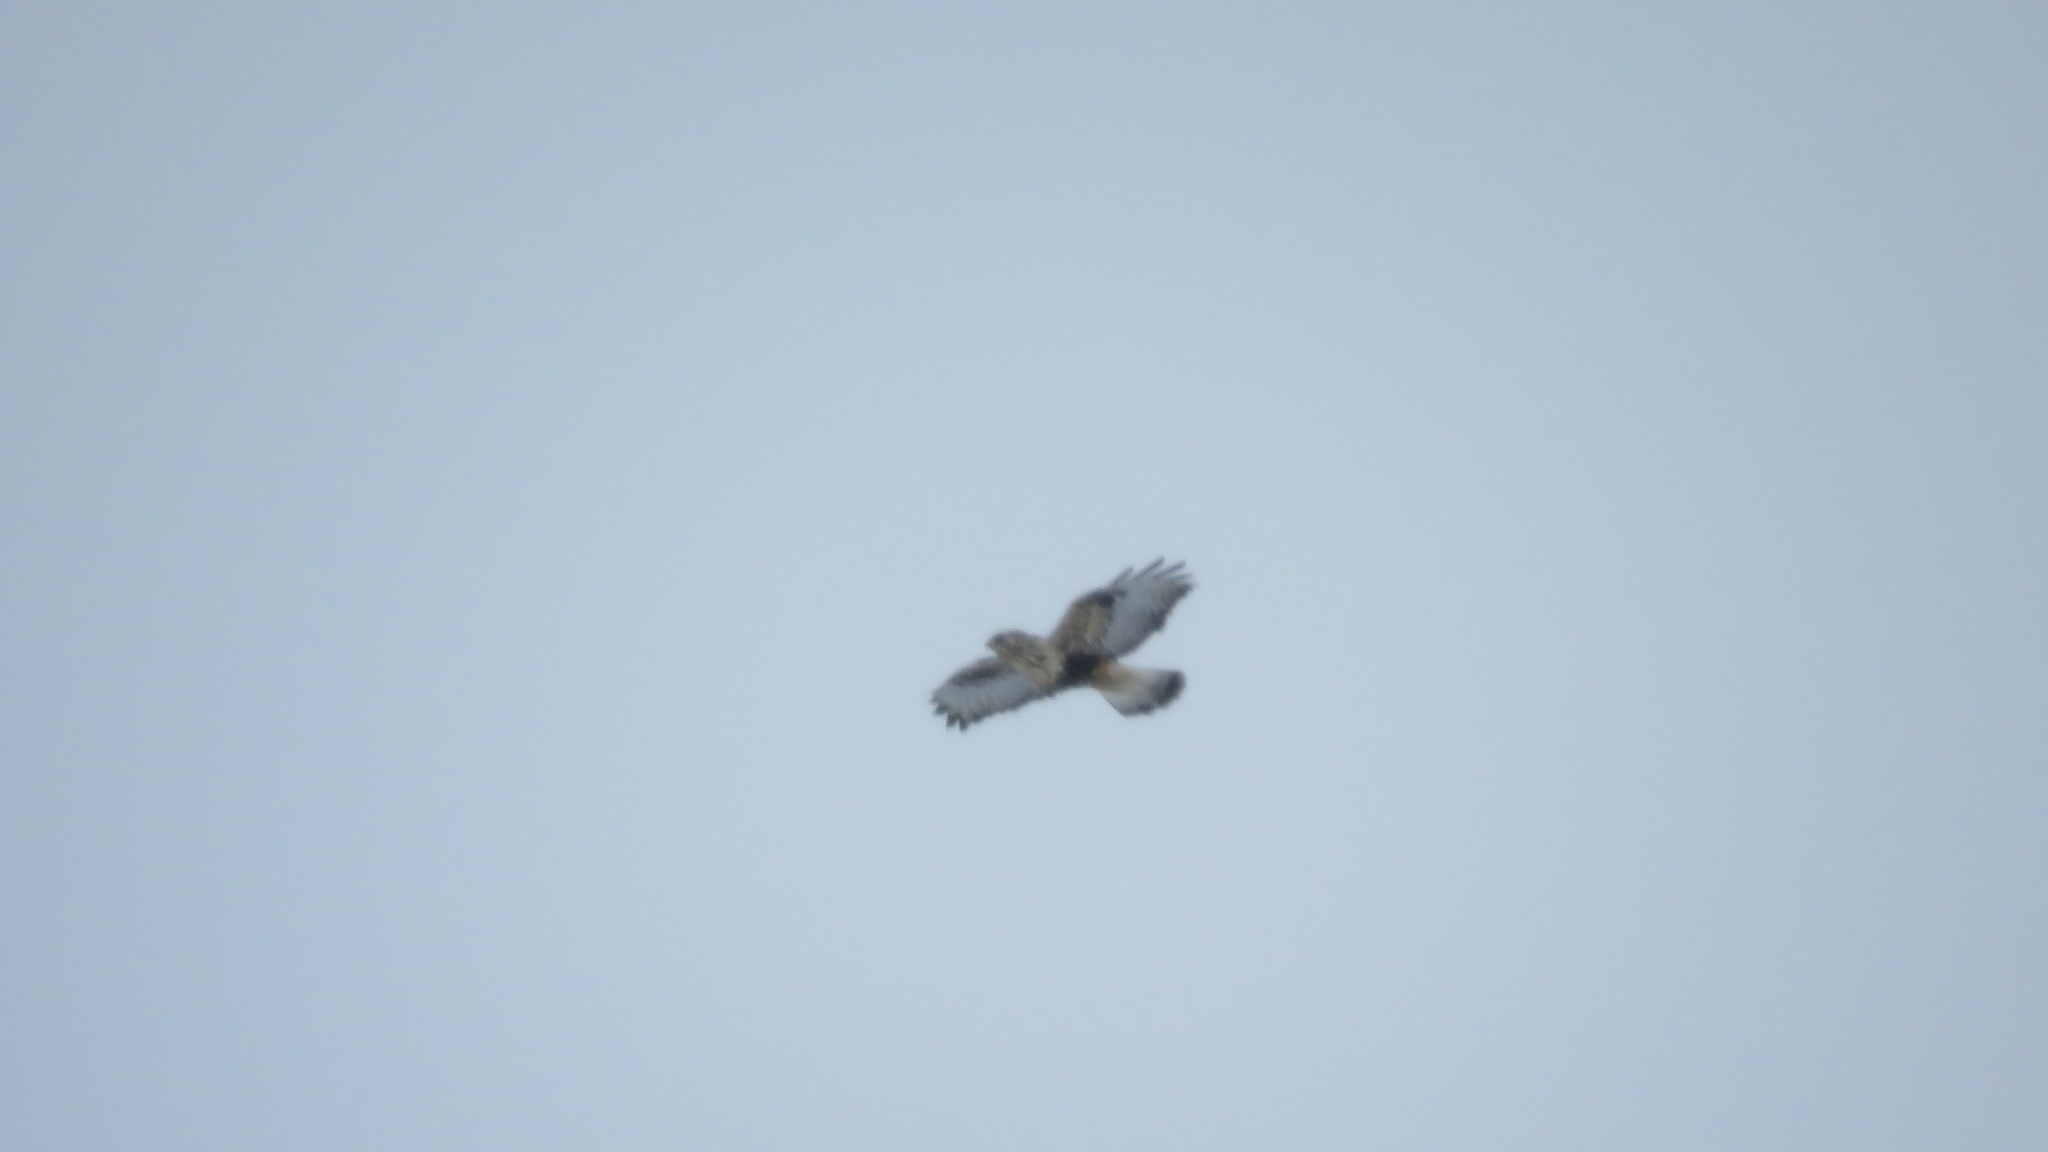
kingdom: Animalia
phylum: Chordata
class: Aves
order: Accipitriformes
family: Accipitridae
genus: Buteo
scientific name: Buteo lagopus
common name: Rough-legged buzzard
